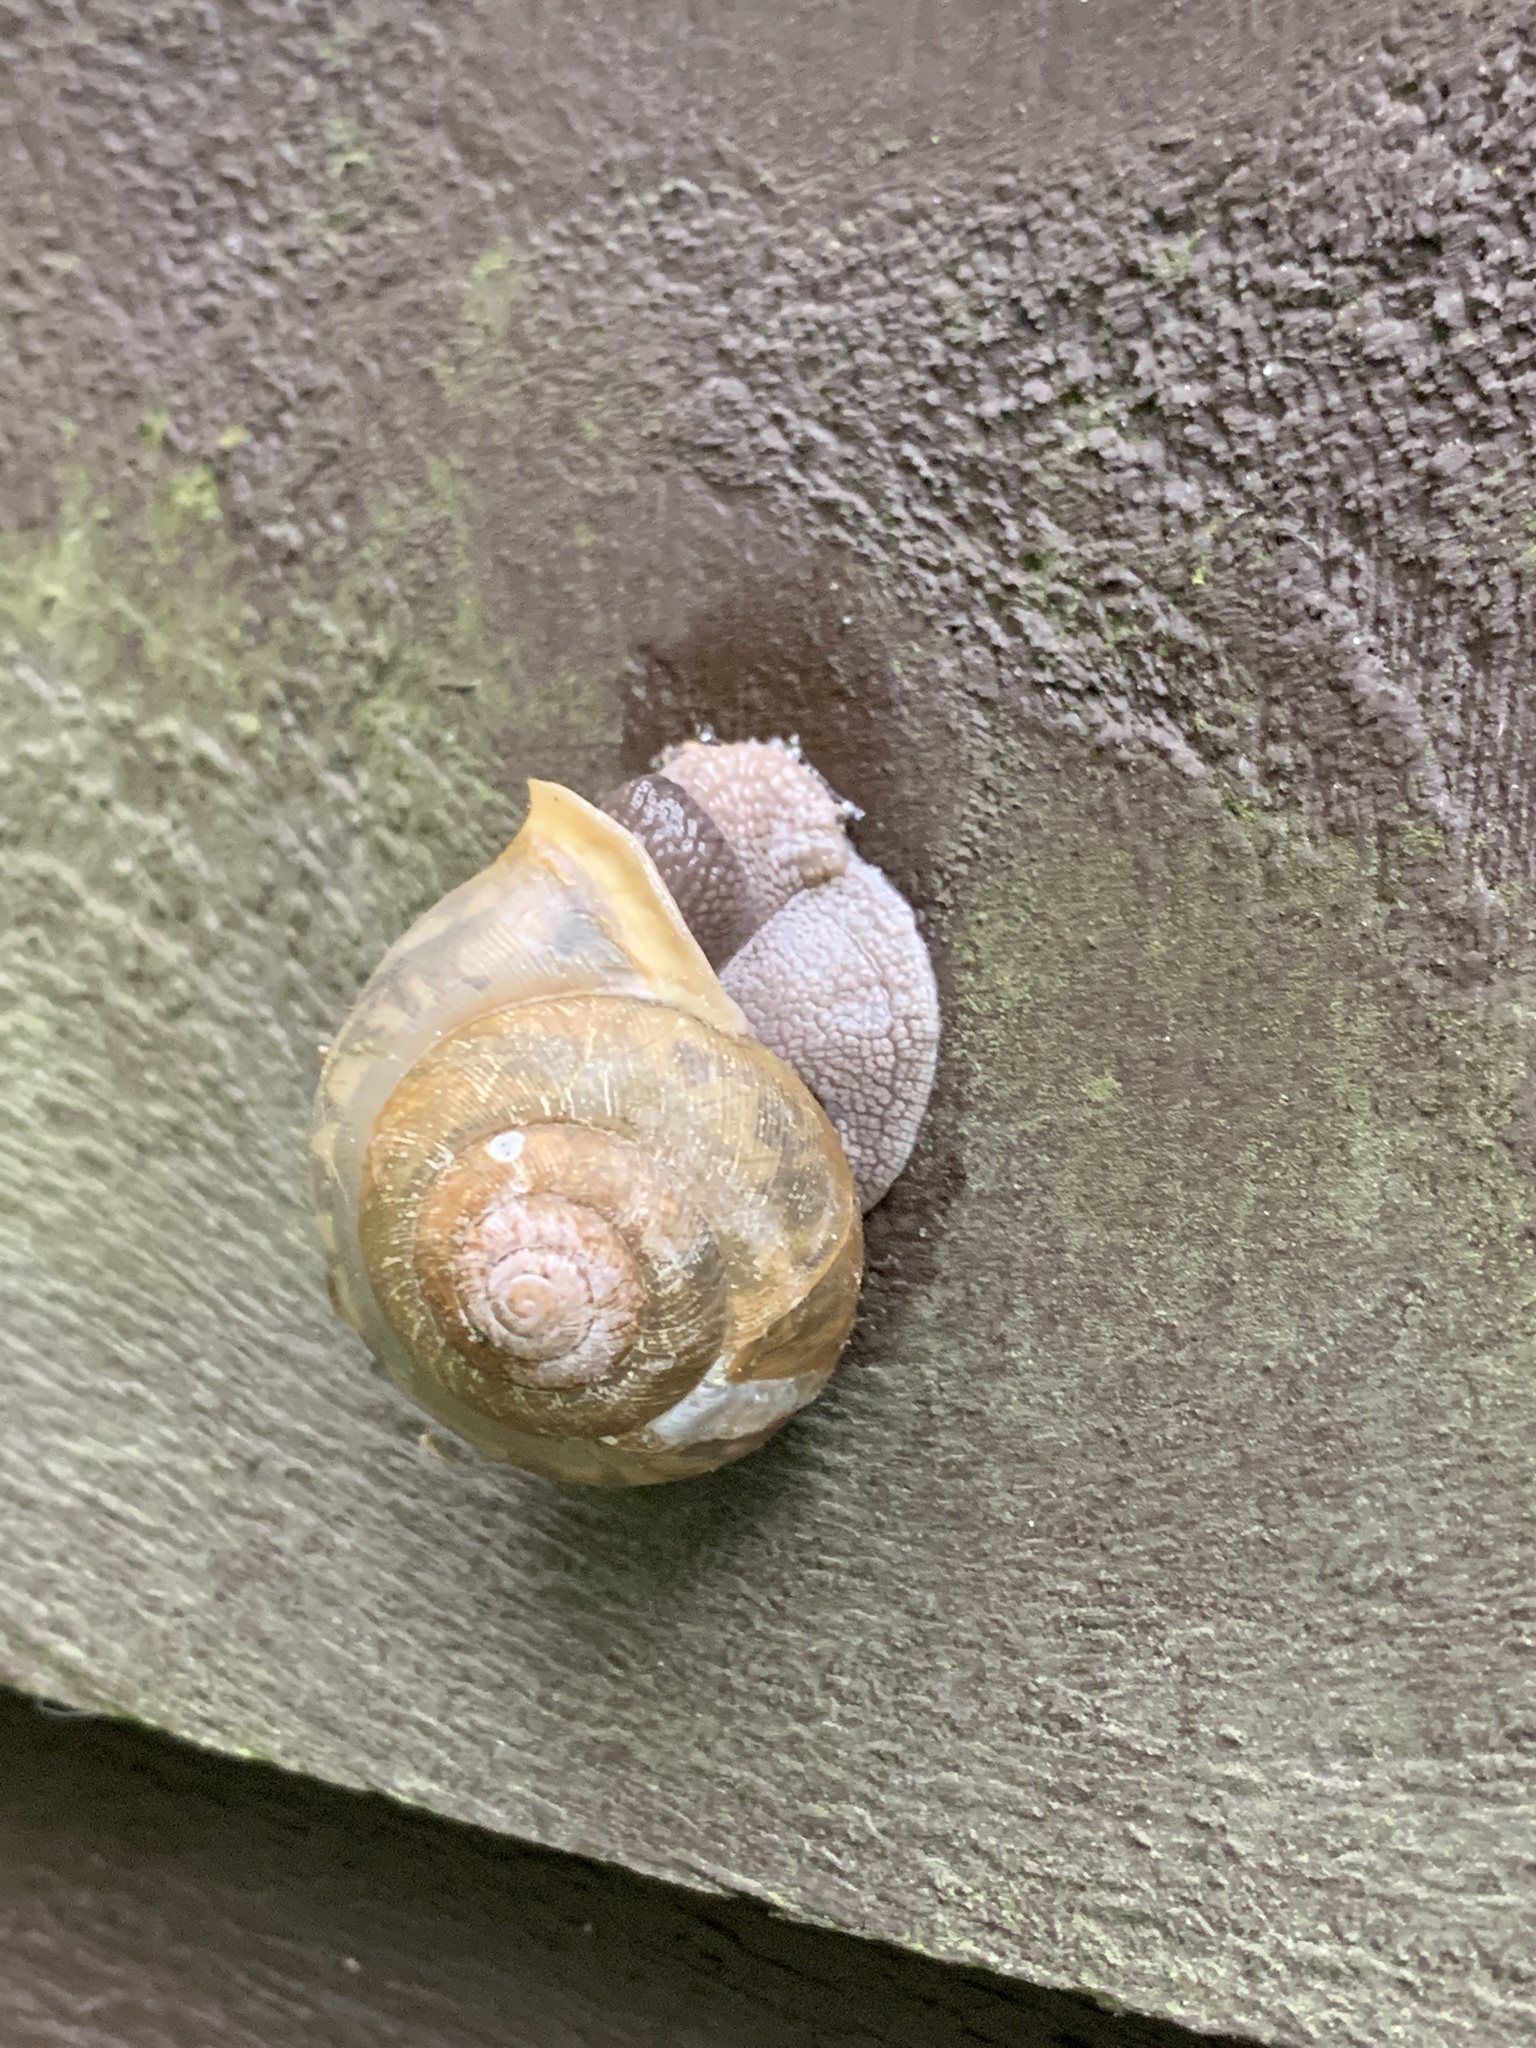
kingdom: Animalia
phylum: Mollusca
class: Gastropoda
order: Stylommatophora
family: Polygyridae
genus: Neohelix
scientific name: Neohelix albolabris
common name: Eastern whitelip
